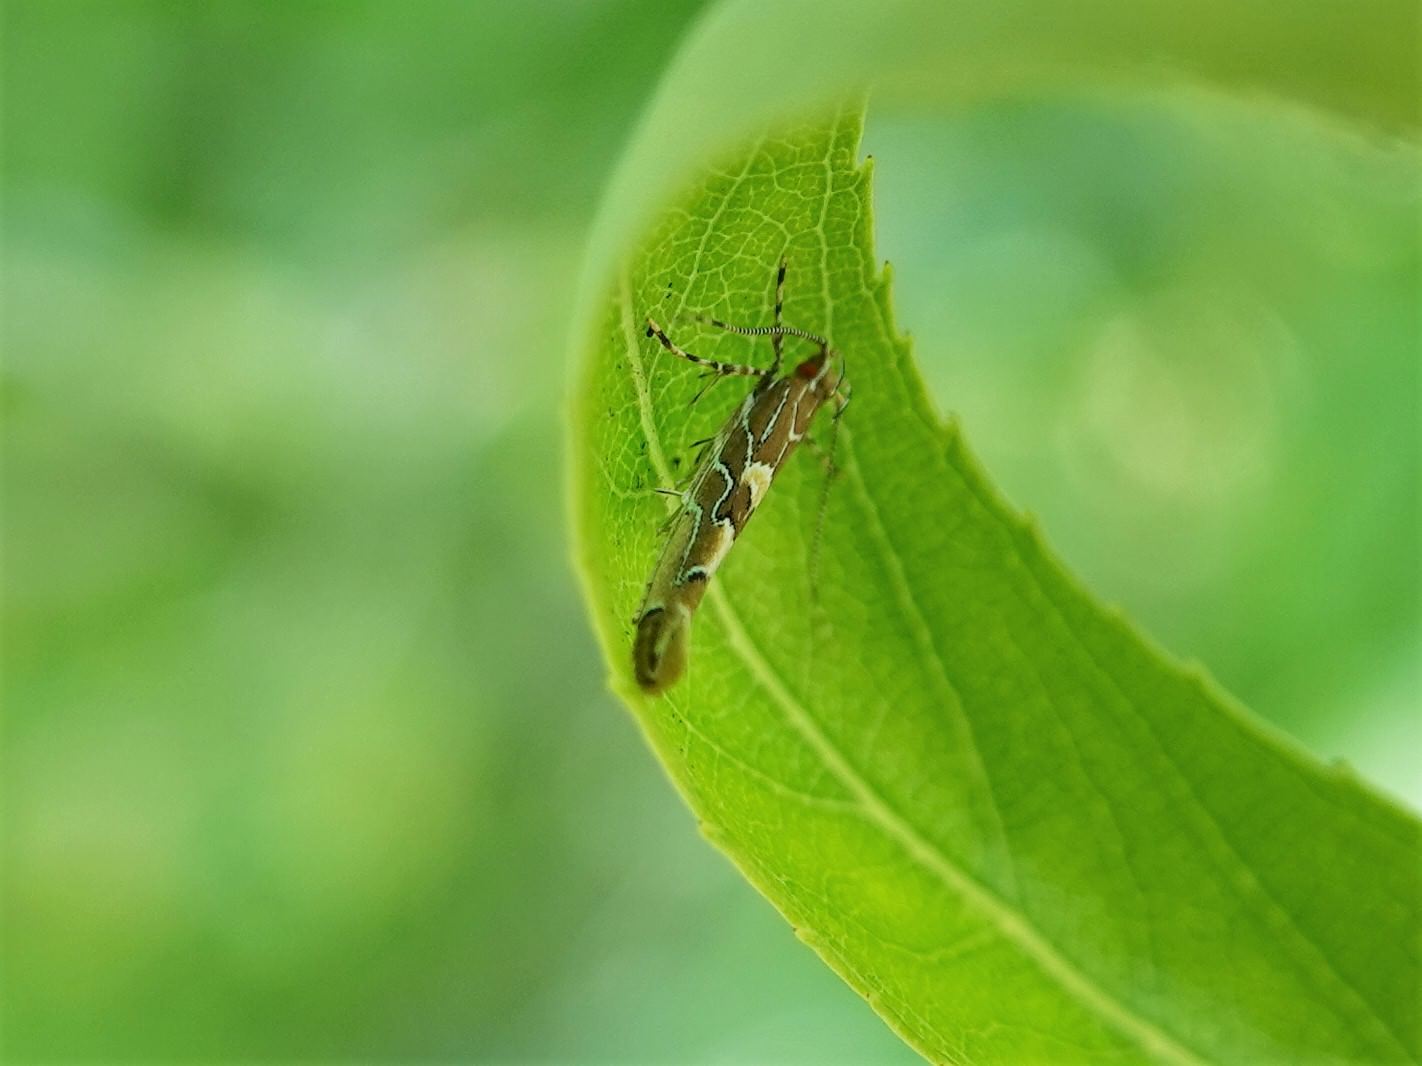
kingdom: Animalia
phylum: Arthropoda
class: Insecta
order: Lepidoptera
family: Cosmopterigidae
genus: Pyroderces
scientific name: Pyroderces apparitella
